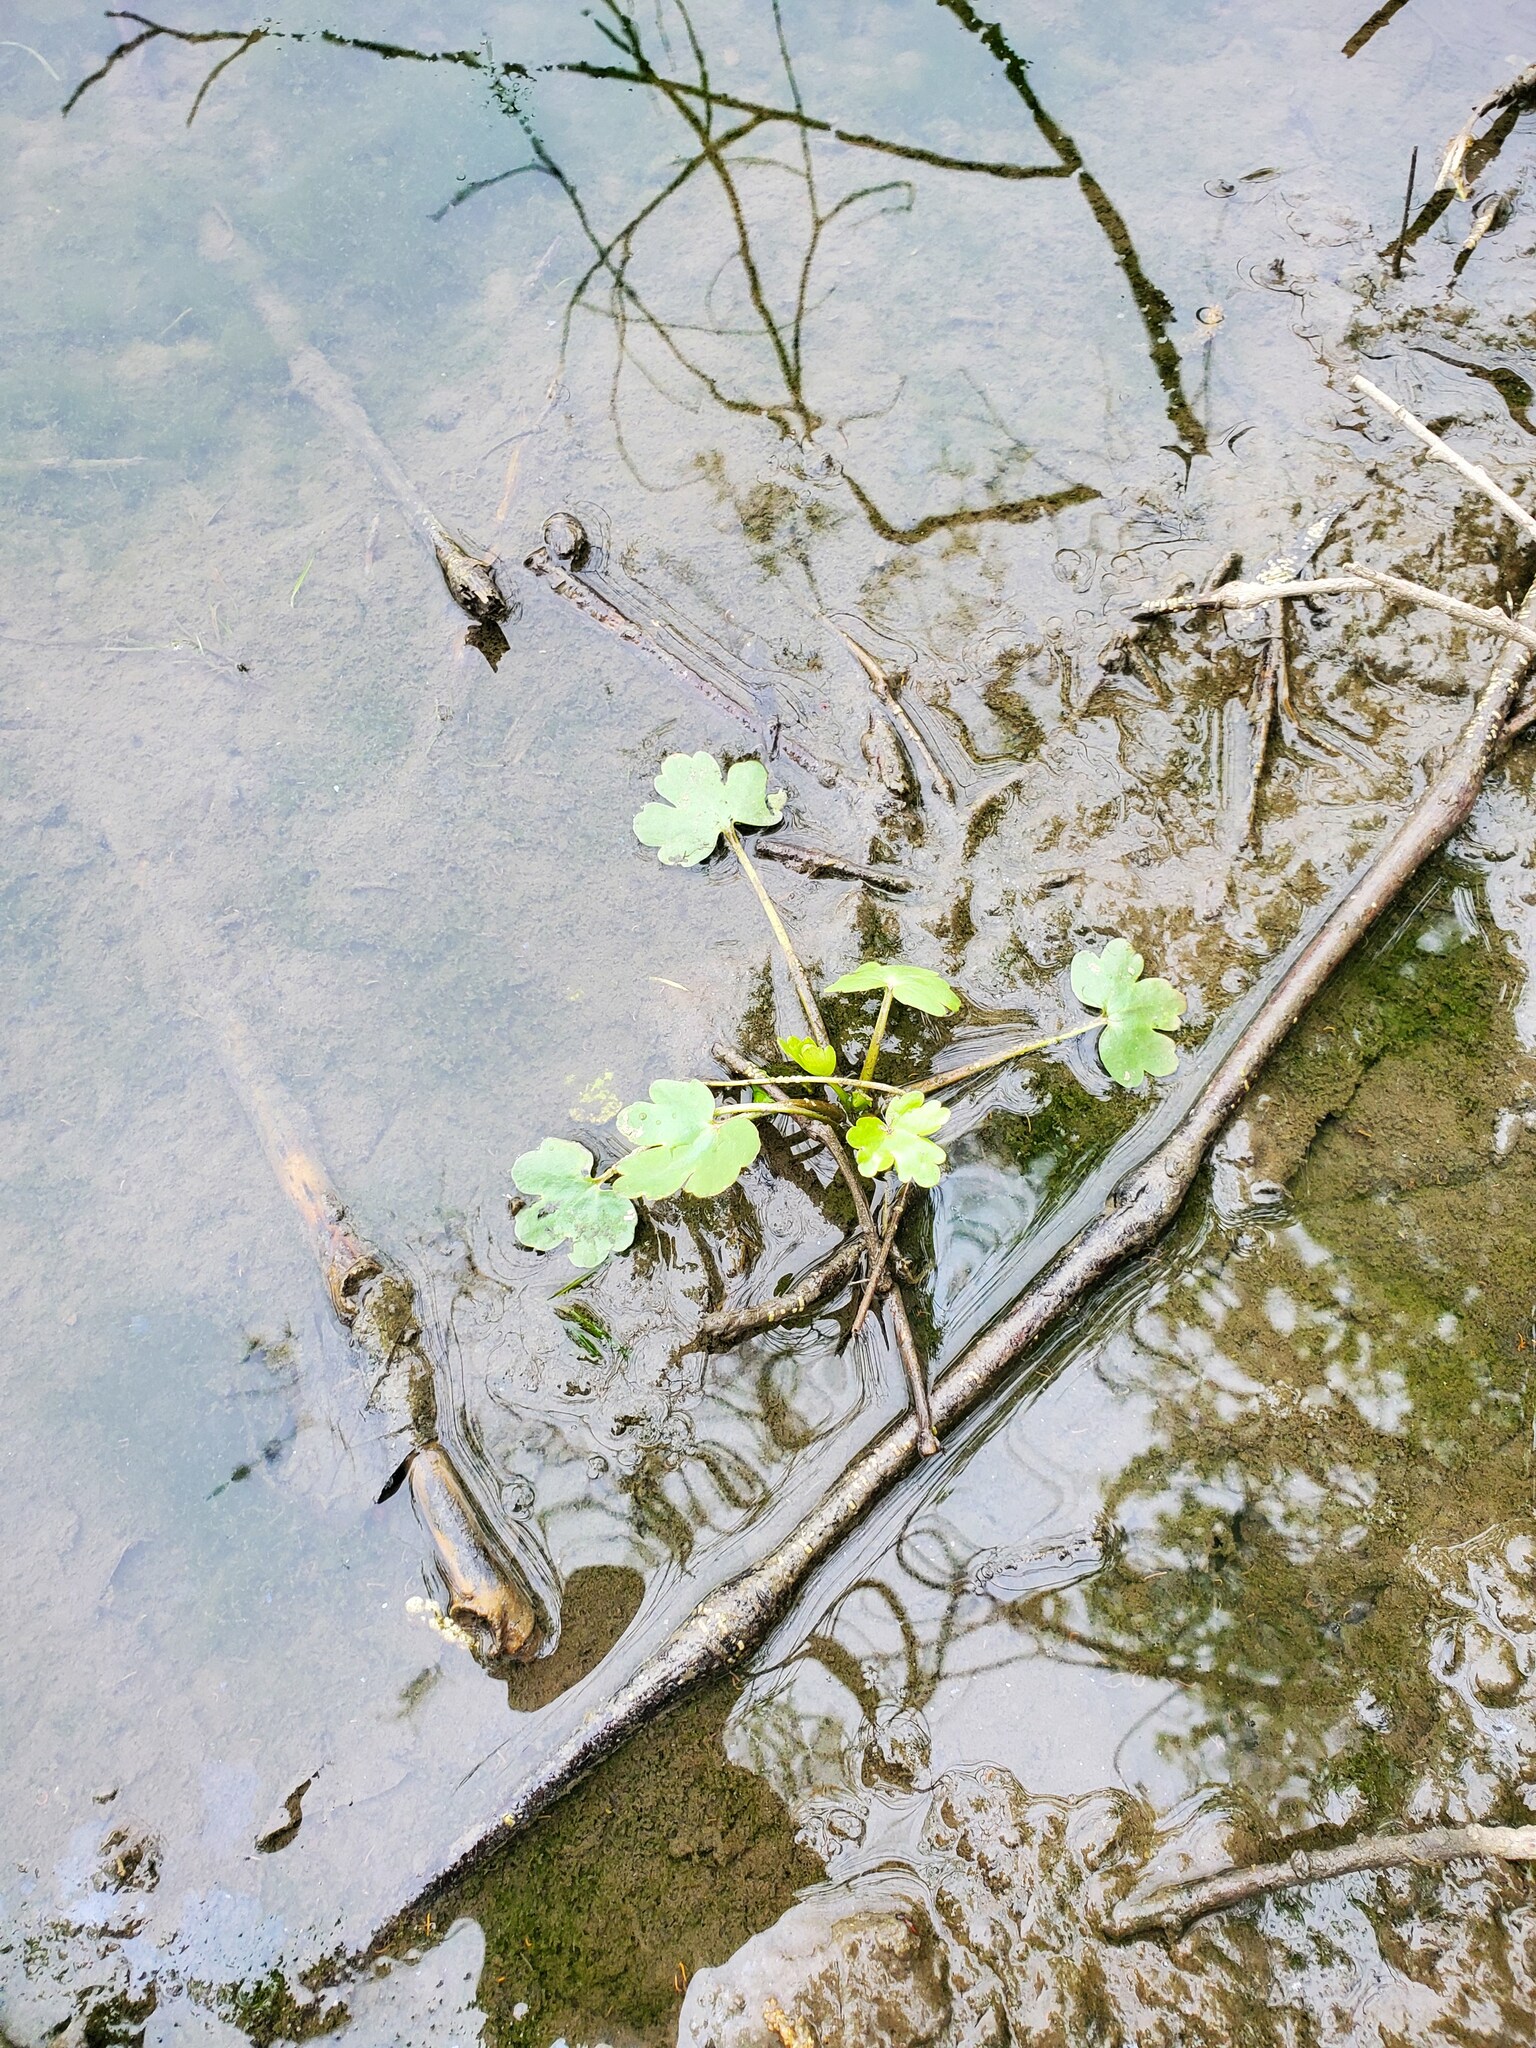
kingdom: Plantae
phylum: Tracheophyta
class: Magnoliopsida
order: Ranunculales
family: Ranunculaceae
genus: Ranunculus
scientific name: Ranunculus sceleratus
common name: Celery-leaved buttercup
